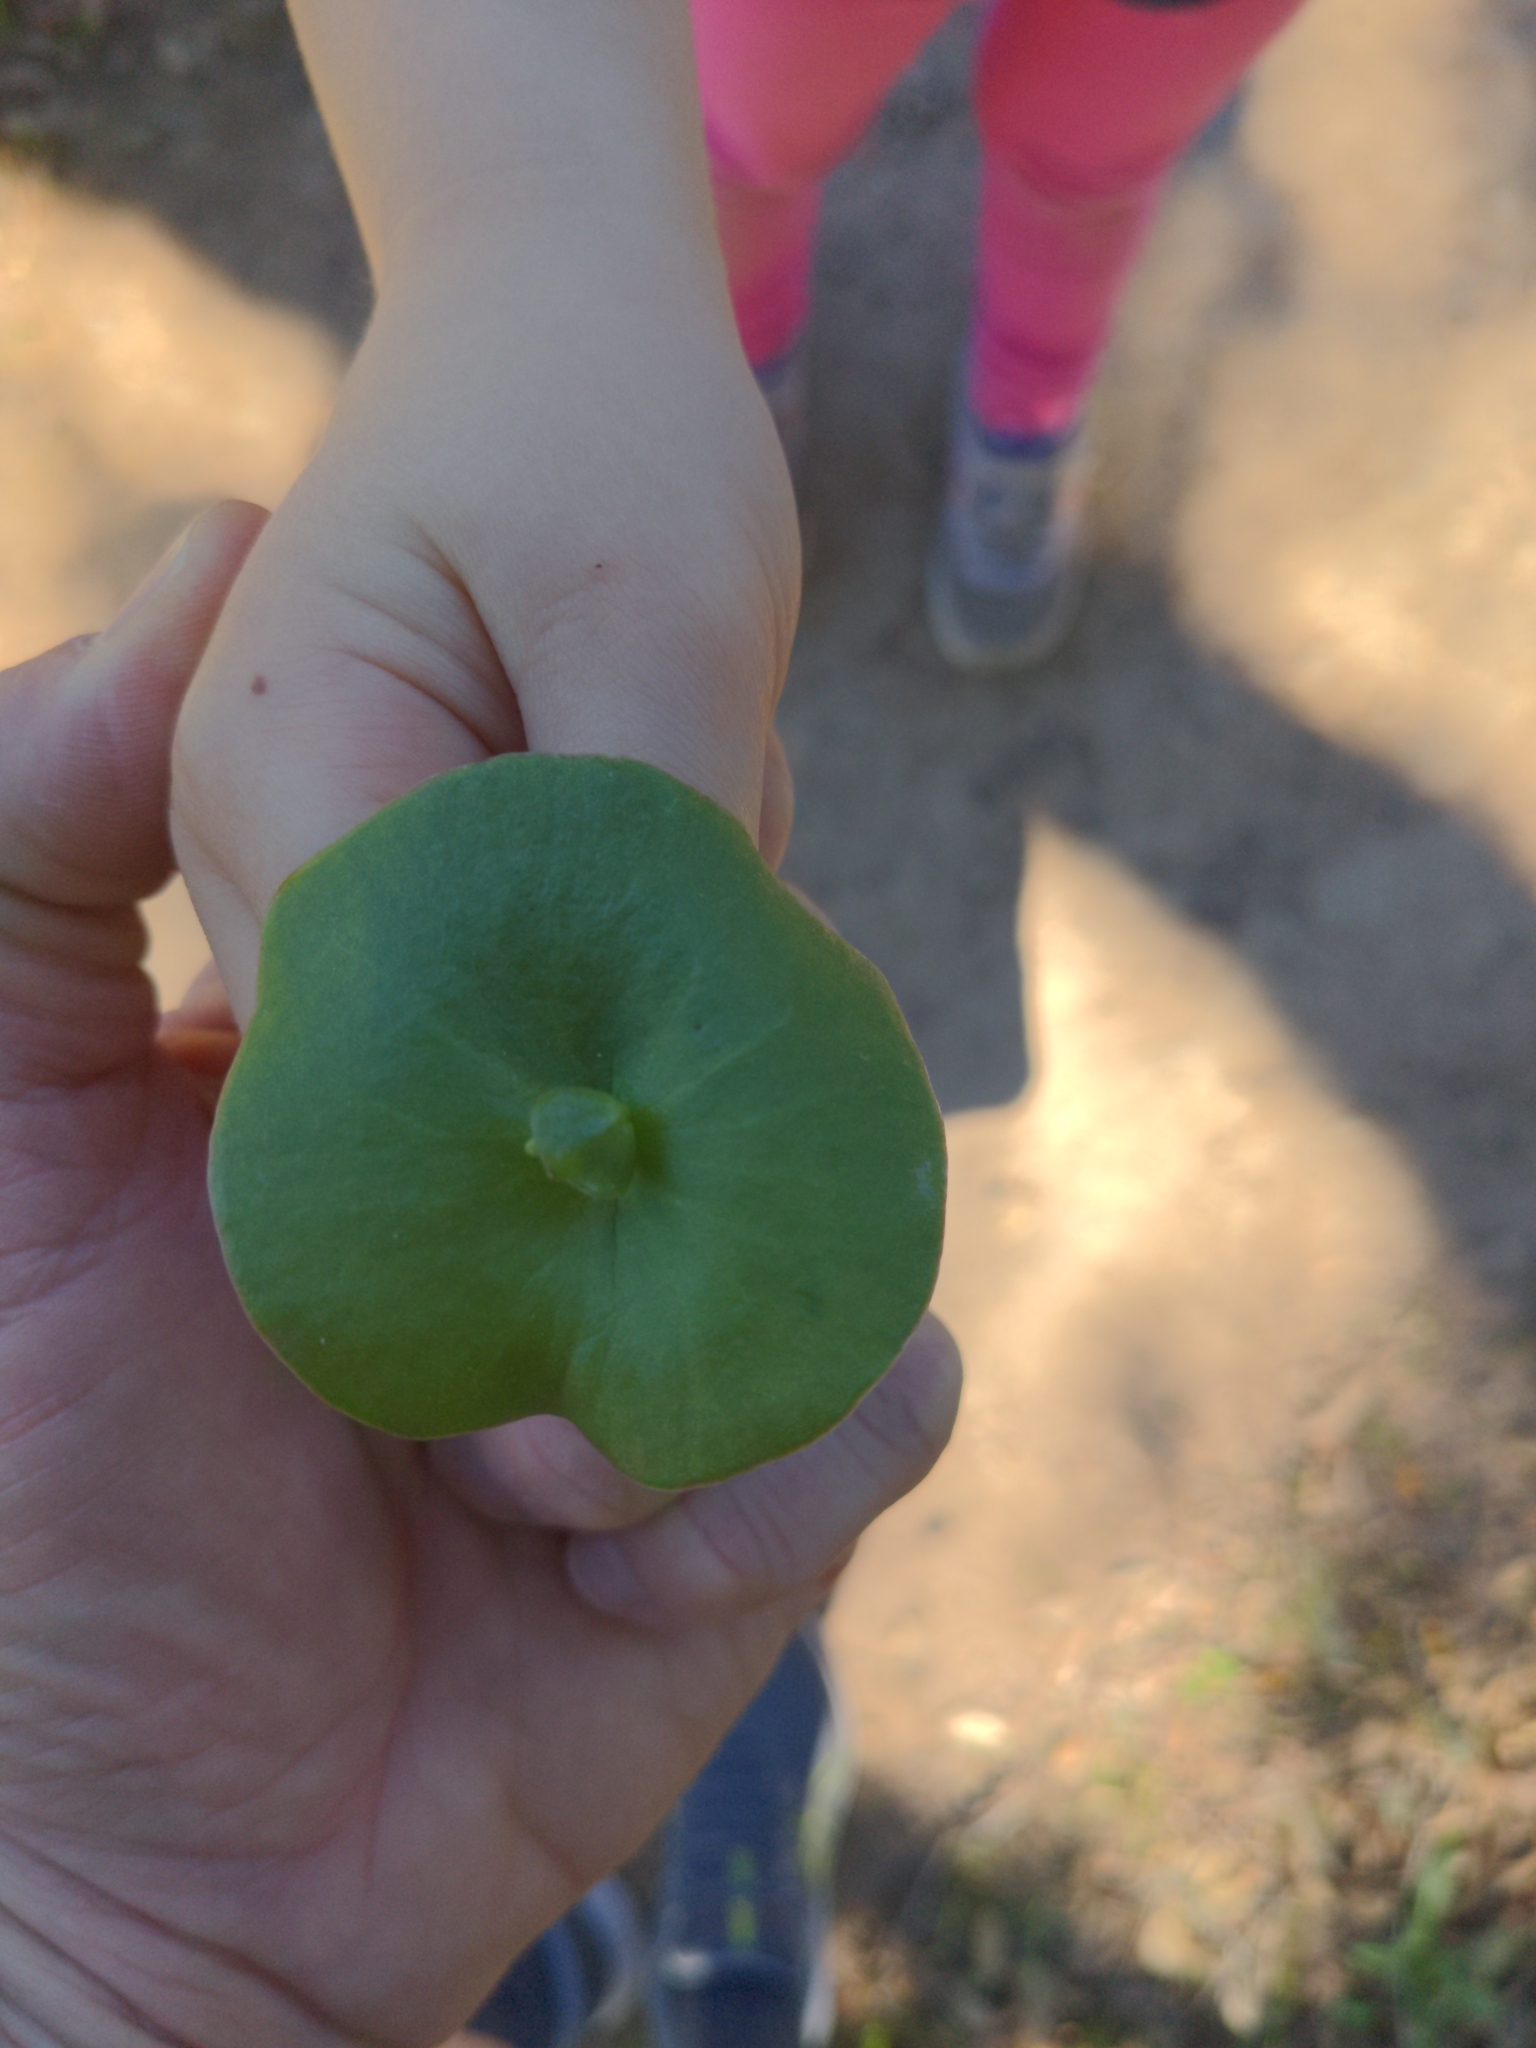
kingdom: Plantae
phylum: Tracheophyta
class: Magnoliopsida
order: Caryophyllales
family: Montiaceae
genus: Claytonia
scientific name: Claytonia perfoliata
